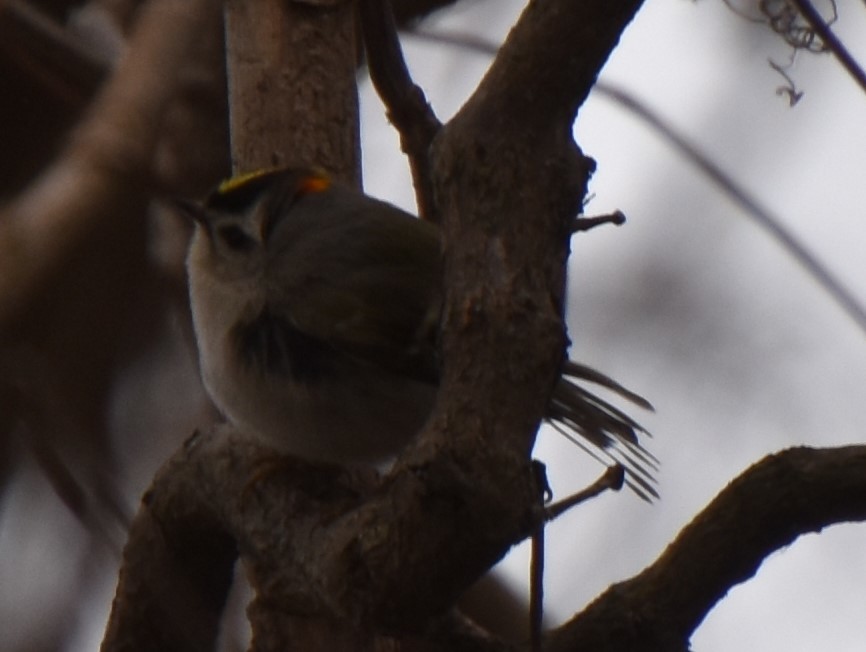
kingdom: Animalia
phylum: Chordata
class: Aves
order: Passeriformes
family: Regulidae
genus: Regulus
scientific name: Regulus satrapa
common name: Golden-crowned kinglet
